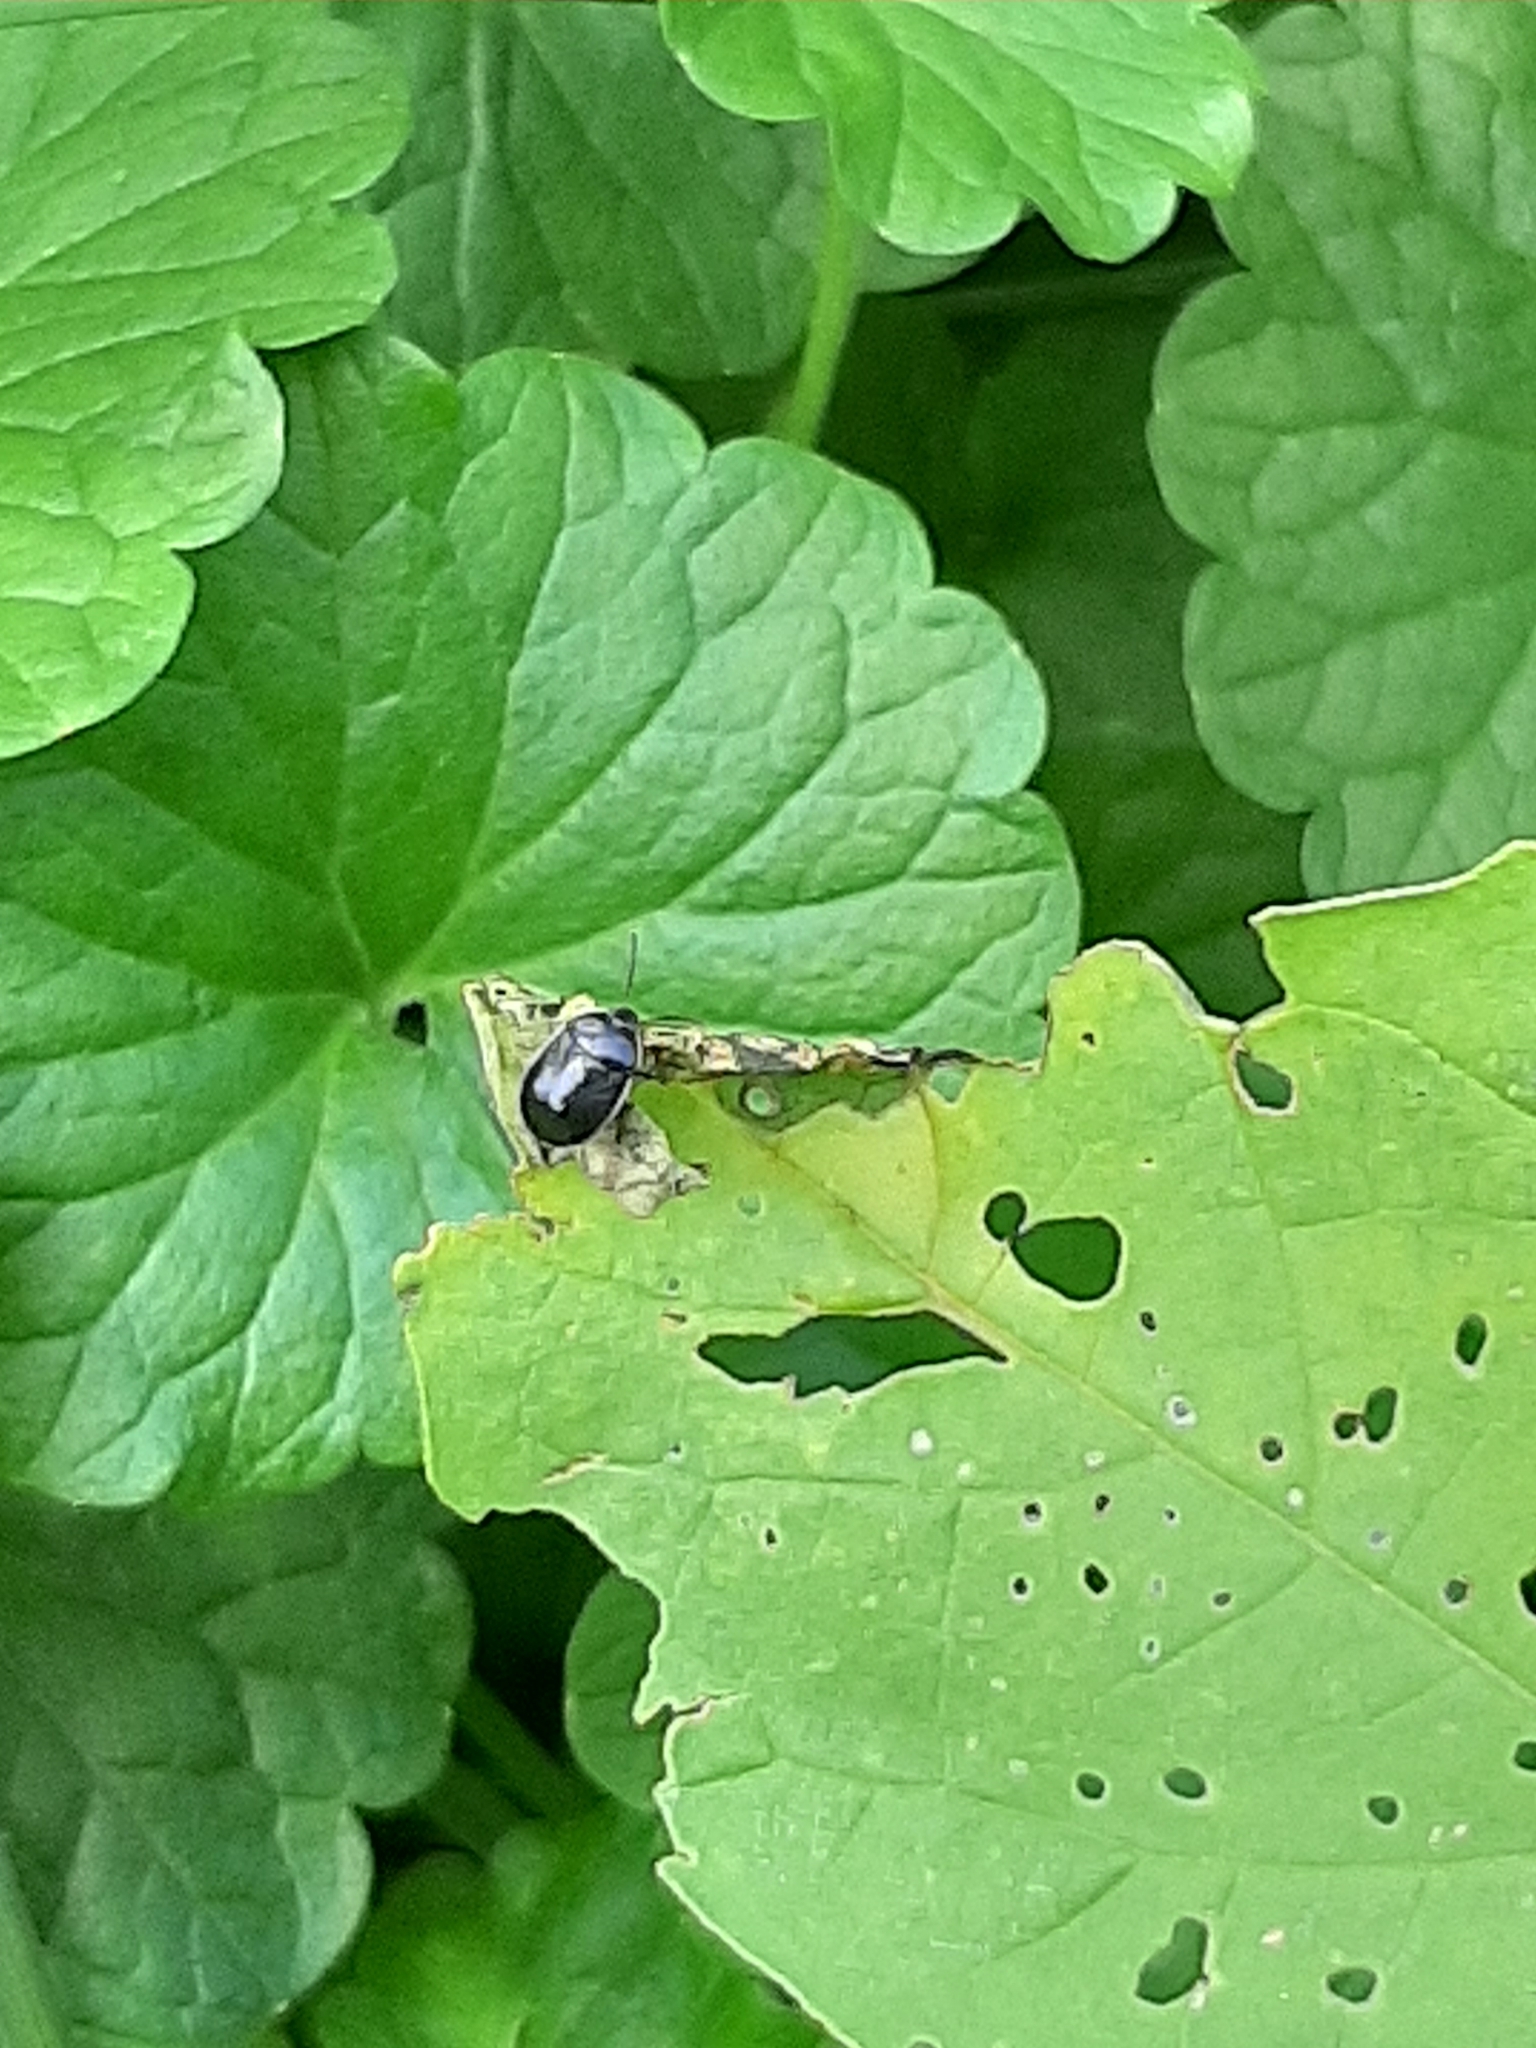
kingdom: Animalia
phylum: Arthropoda
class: Insecta
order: Hemiptera
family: Cydnidae
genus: Sehirus
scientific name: Sehirus cinctus
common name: White-margined burrower bug
